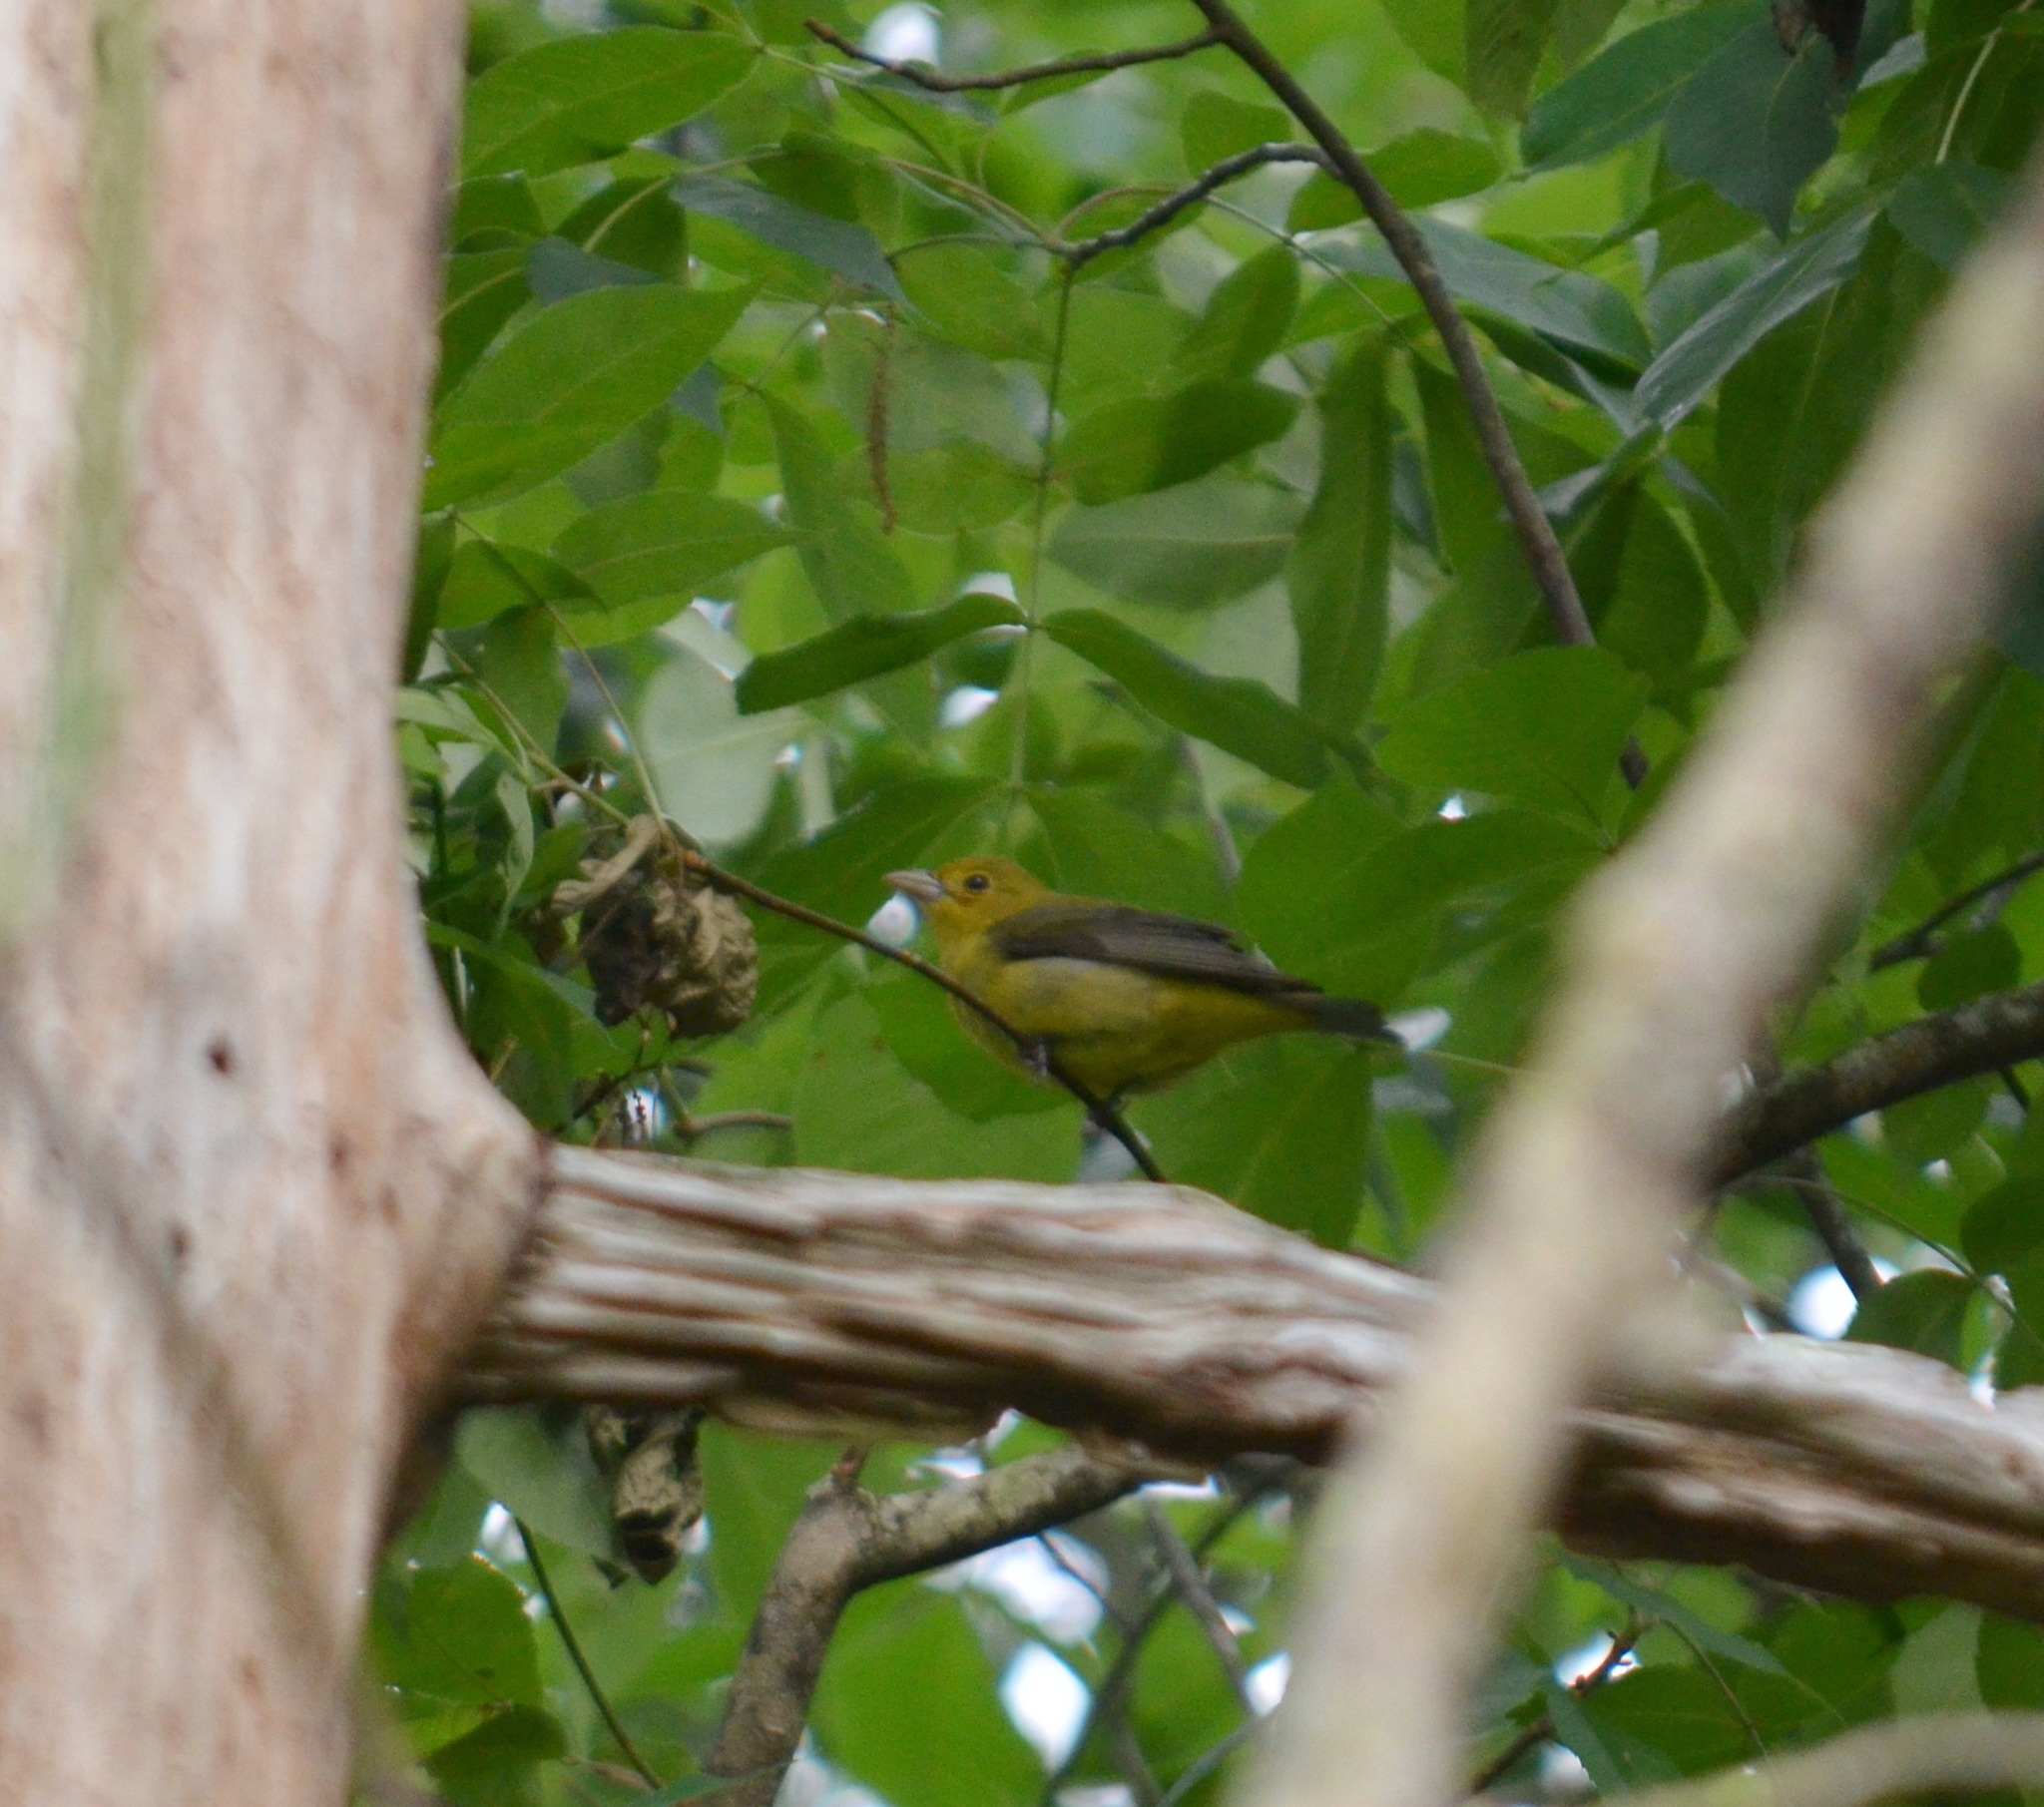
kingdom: Animalia
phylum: Chordata
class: Aves
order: Passeriformes
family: Cardinalidae
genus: Piranga
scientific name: Piranga olivacea
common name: Scarlet tanager
